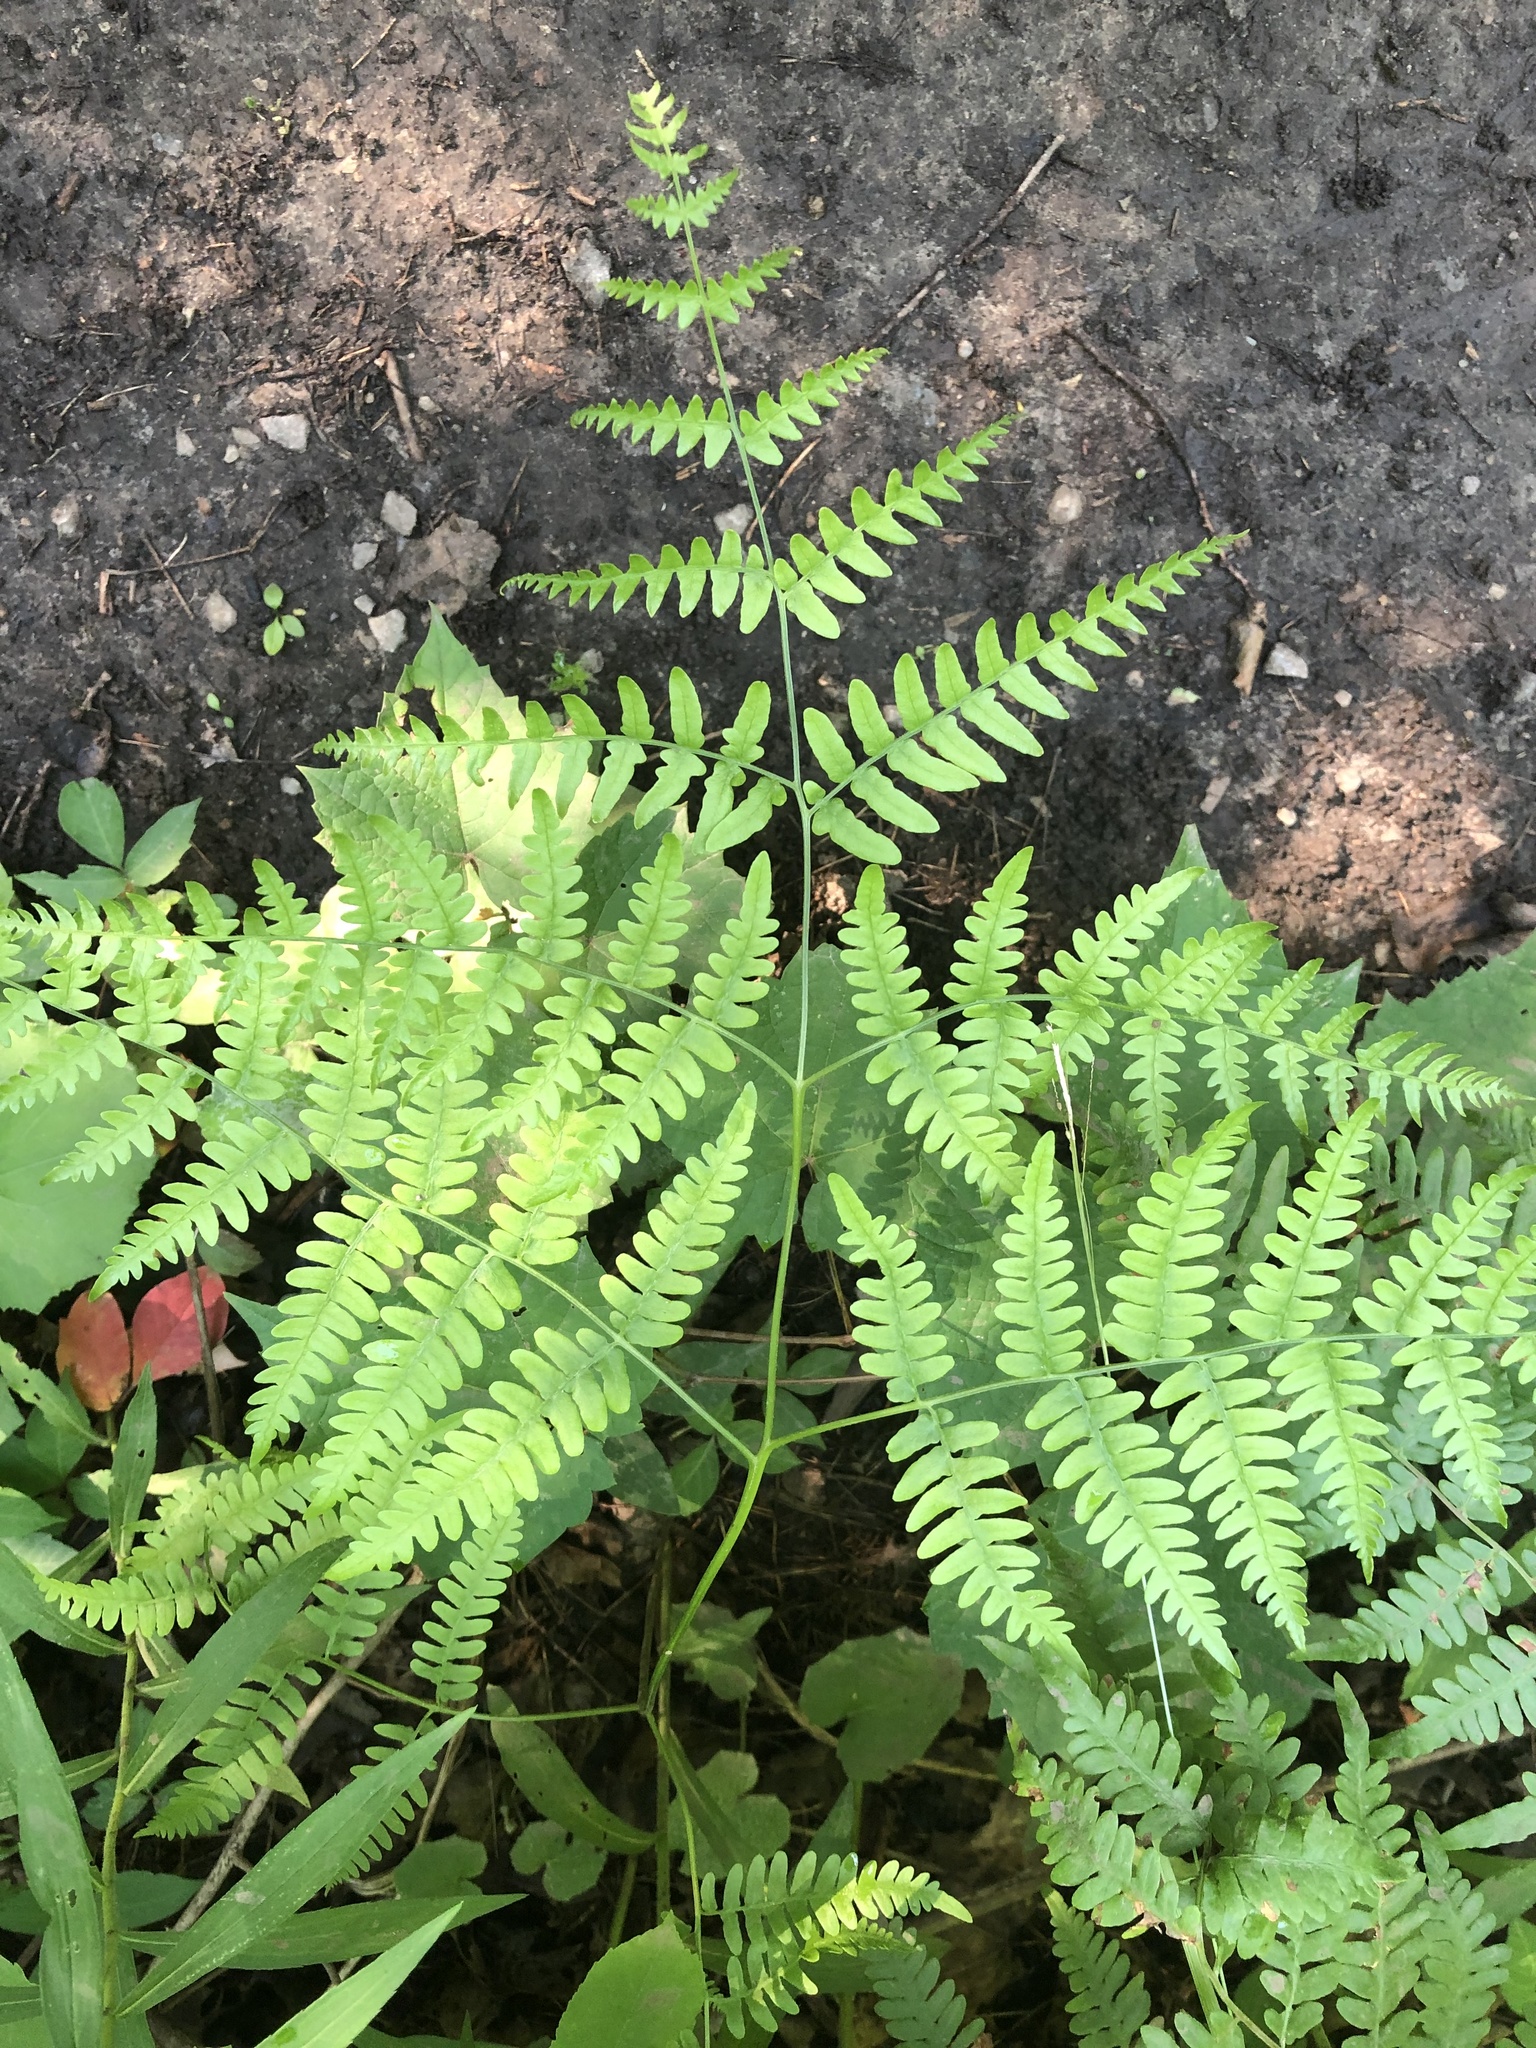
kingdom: Plantae
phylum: Tracheophyta
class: Polypodiopsida
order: Polypodiales
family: Dennstaedtiaceae
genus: Pteridium
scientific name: Pteridium aquilinum
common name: Bracken
